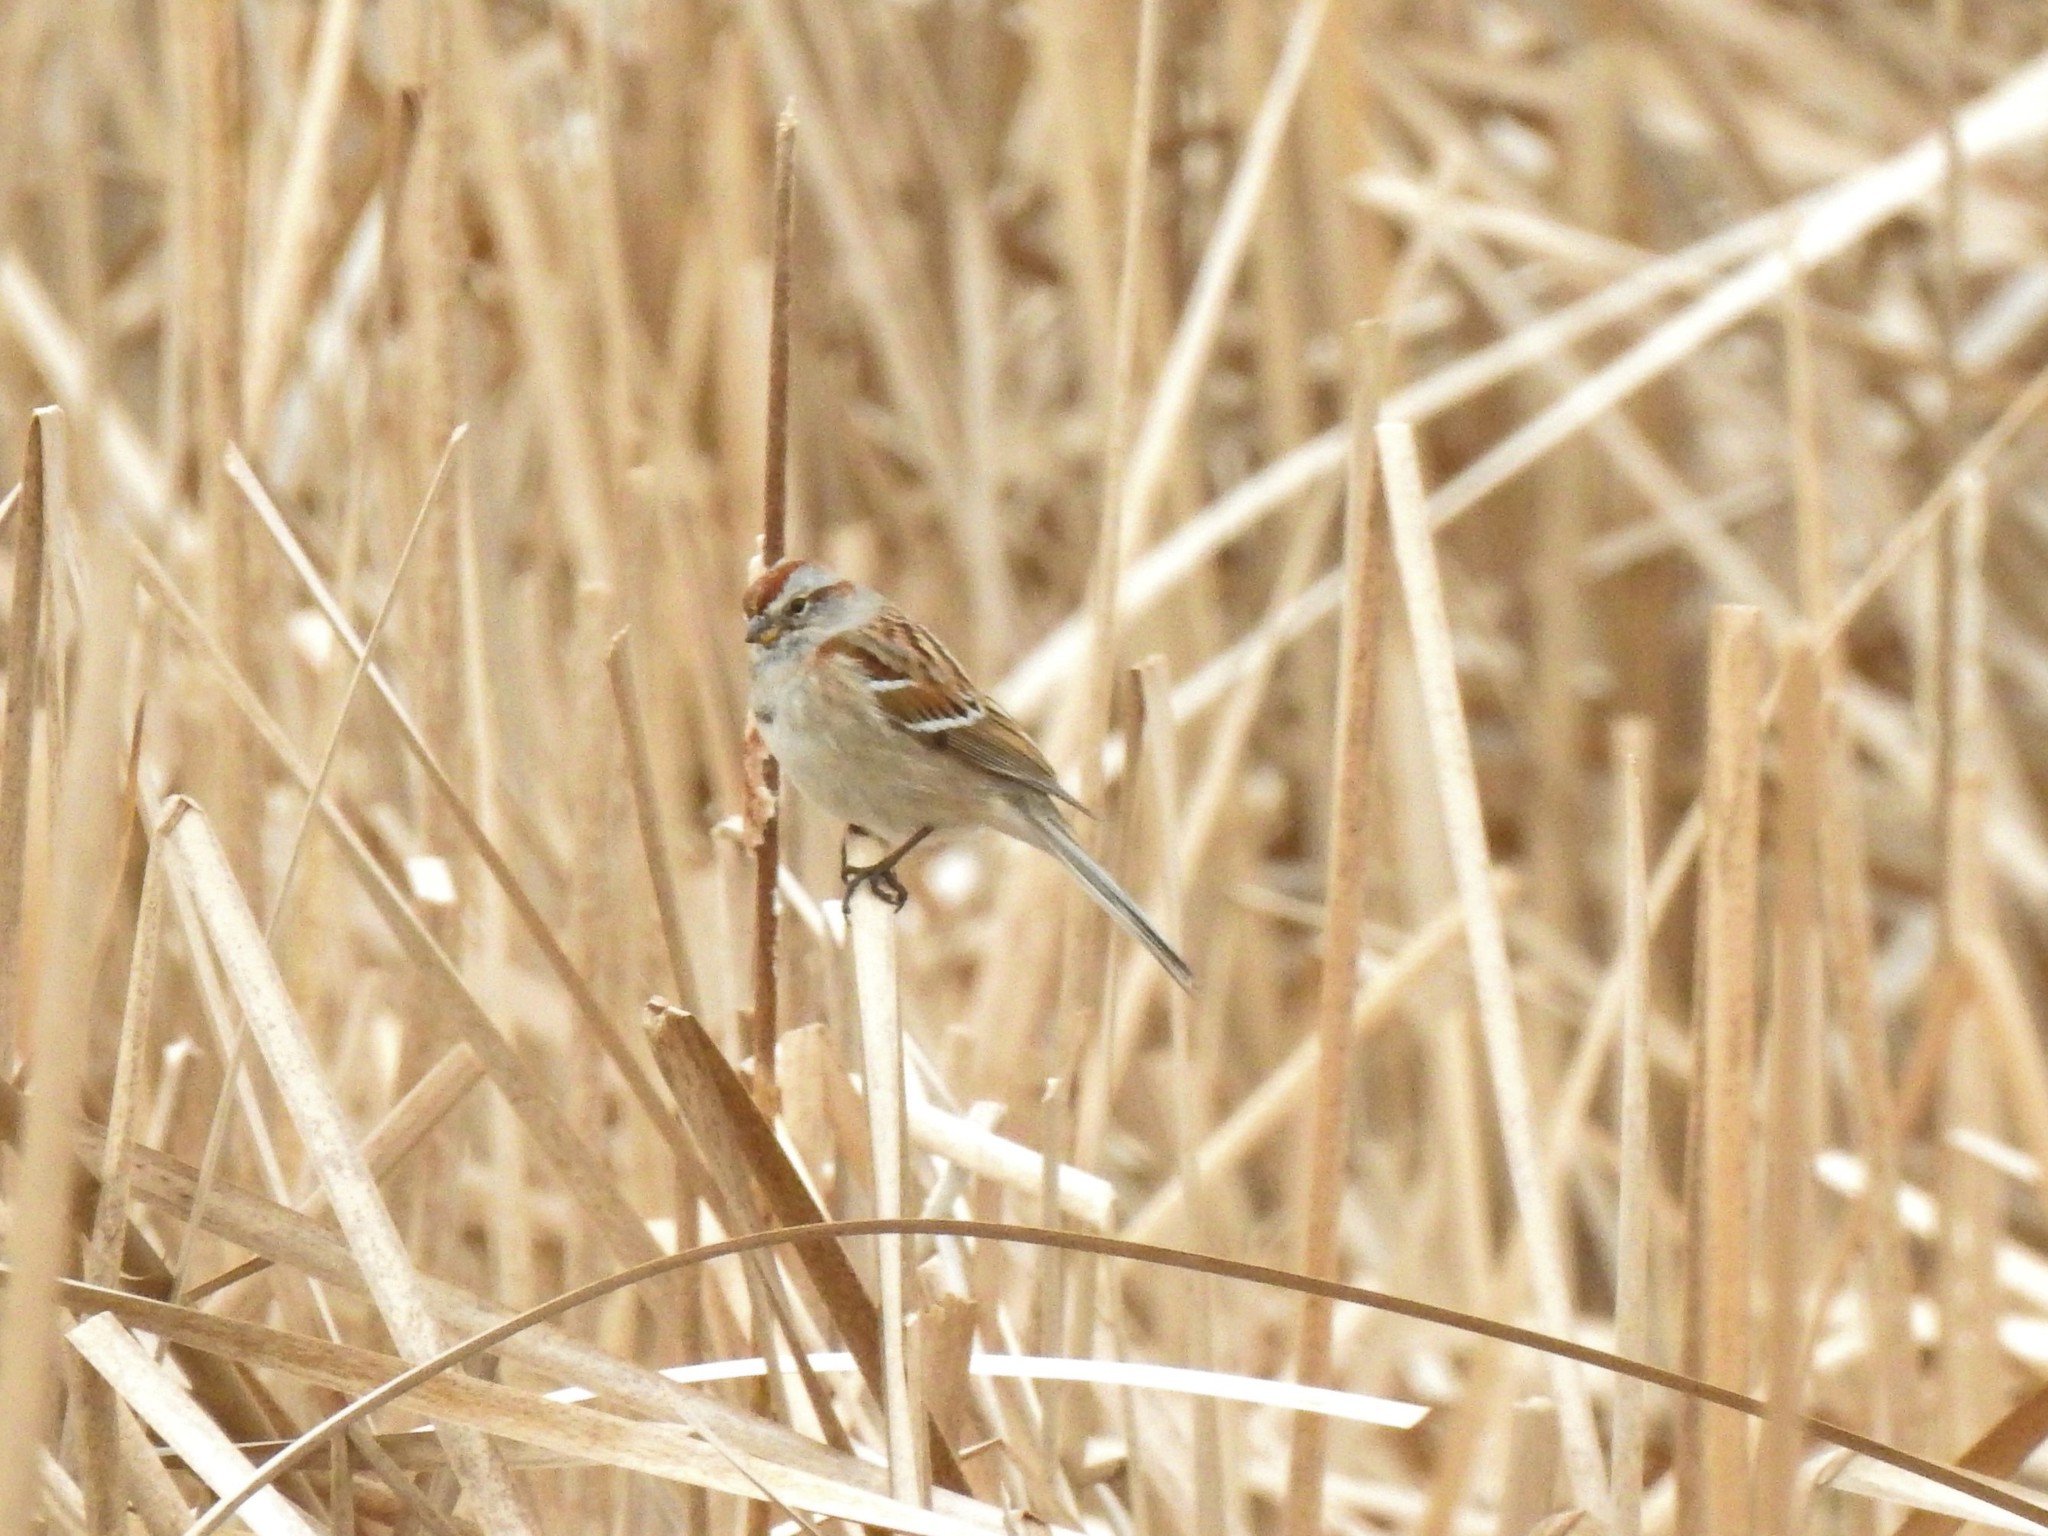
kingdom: Animalia
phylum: Chordata
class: Aves
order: Passeriformes
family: Passerellidae
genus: Spizelloides
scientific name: Spizelloides arborea
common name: American tree sparrow
